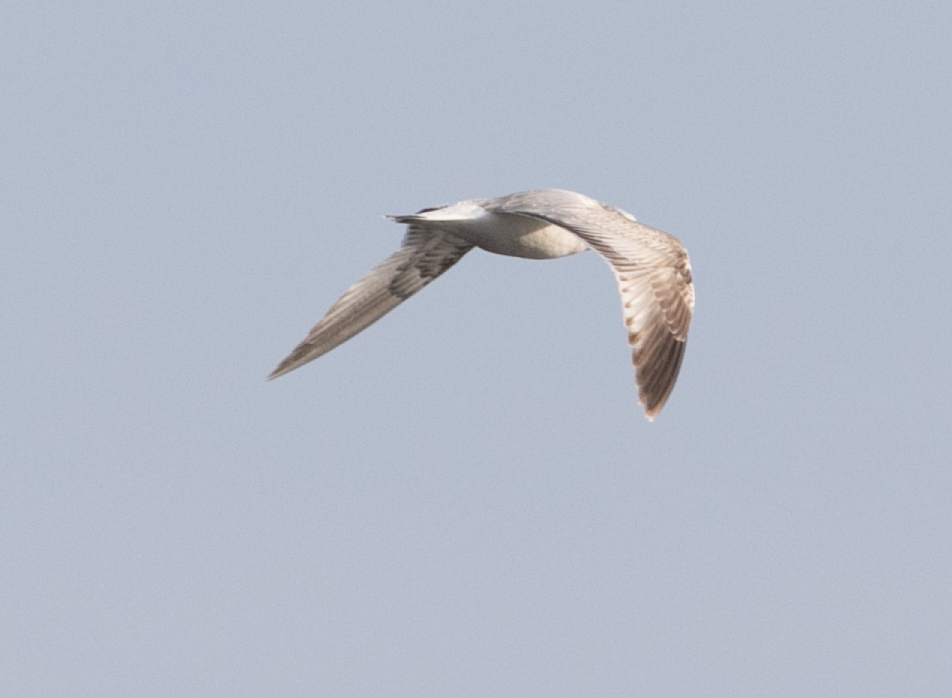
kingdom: Animalia
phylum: Chordata
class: Aves
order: Charadriiformes
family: Laridae
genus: Larus
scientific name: Larus canus
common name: Mew gull
